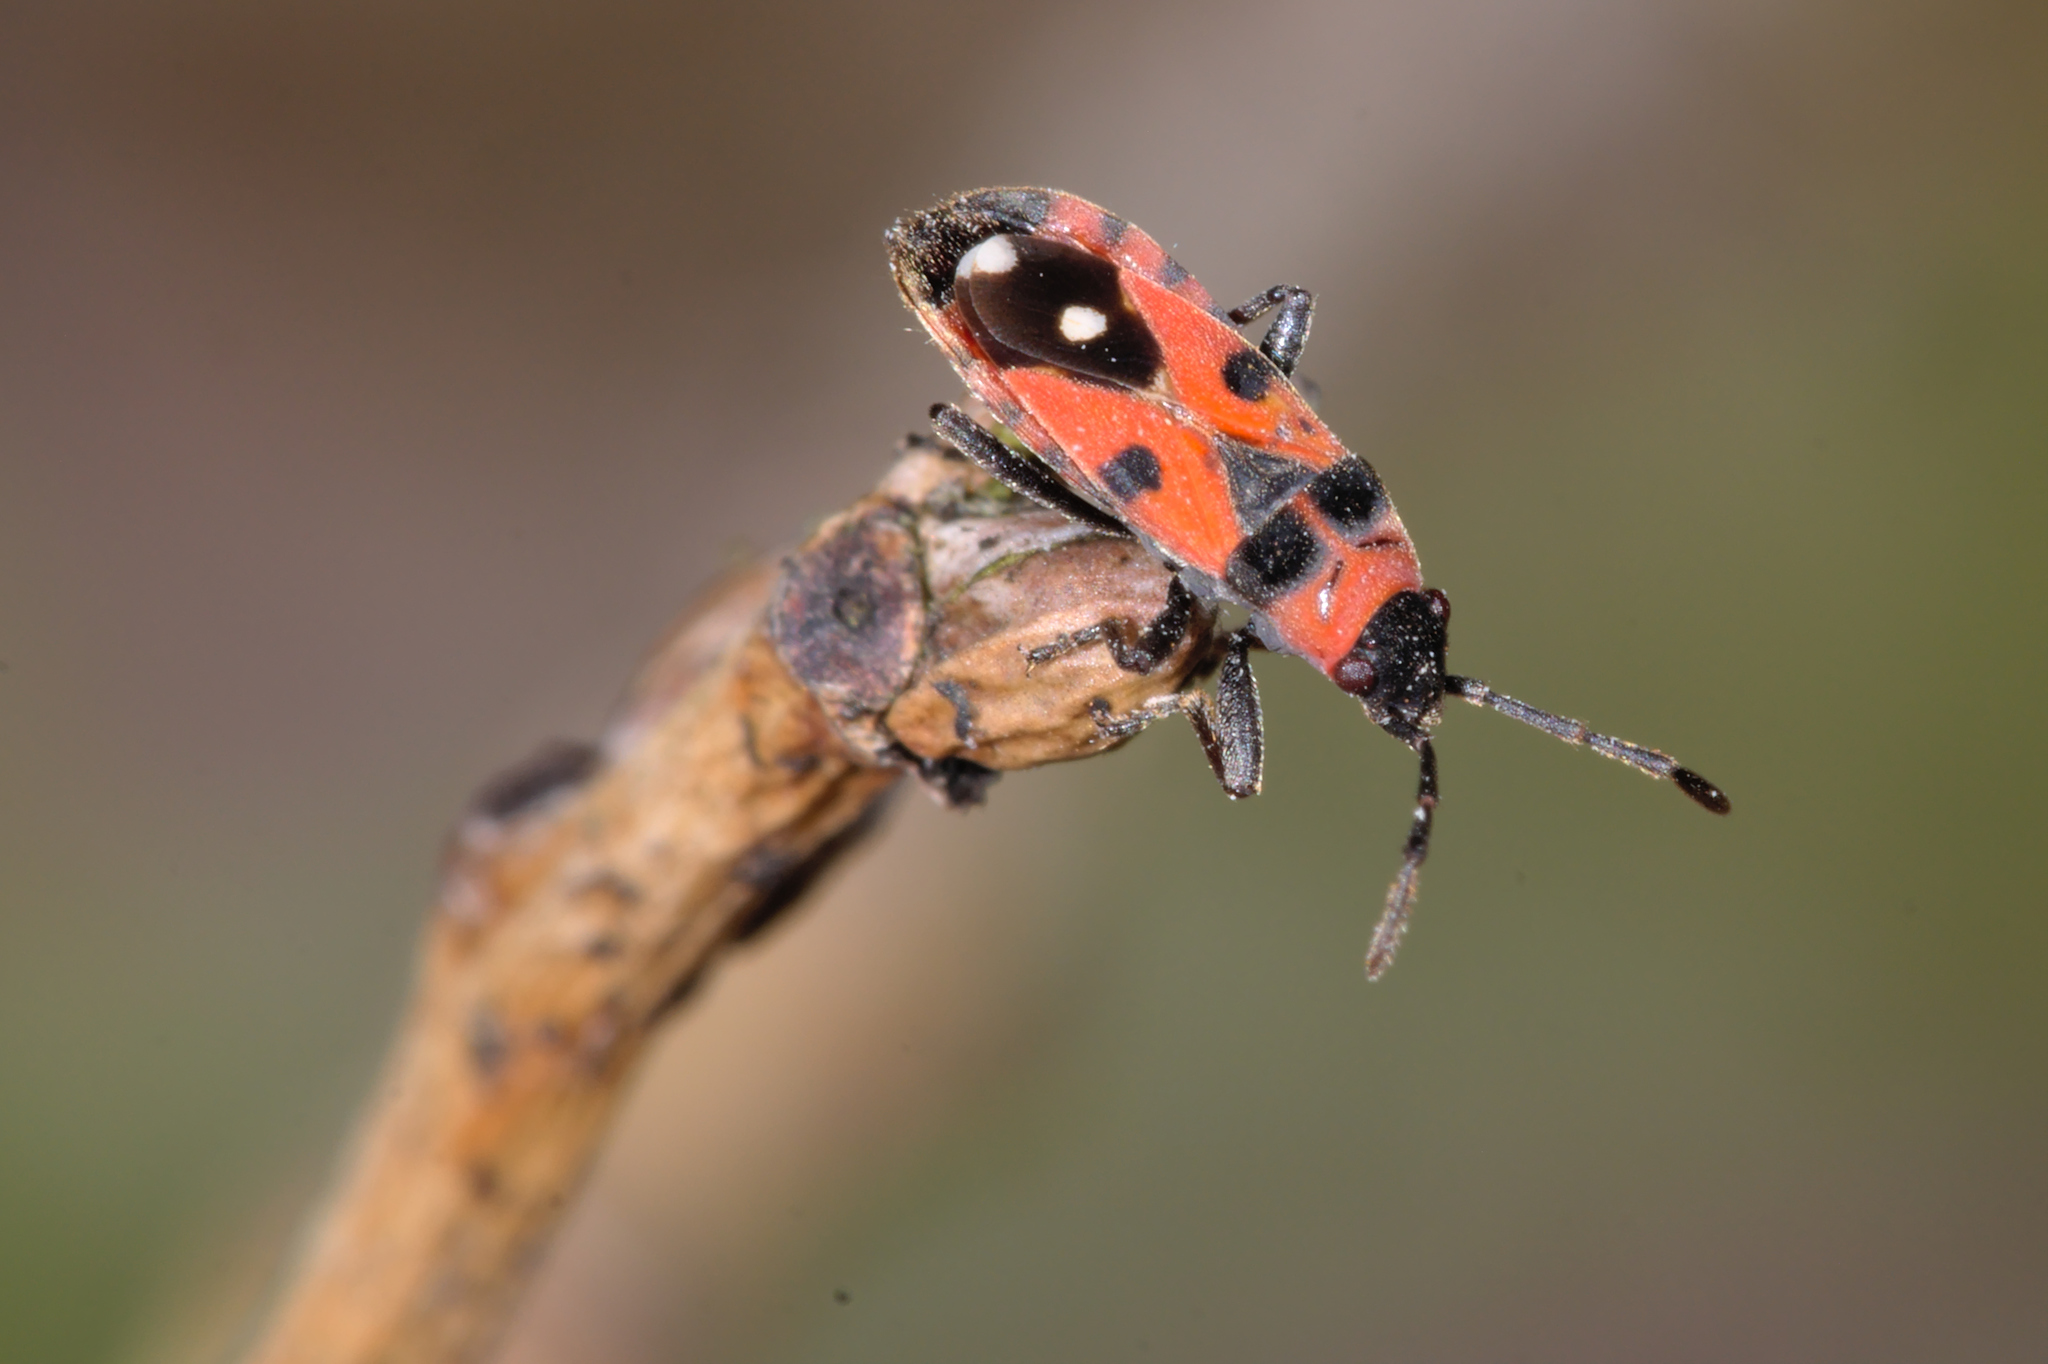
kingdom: Animalia
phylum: Arthropoda
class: Insecta
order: Hemiptera
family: Lygaeidae
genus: Horvathiolus
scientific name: Horvathiolus superbus
